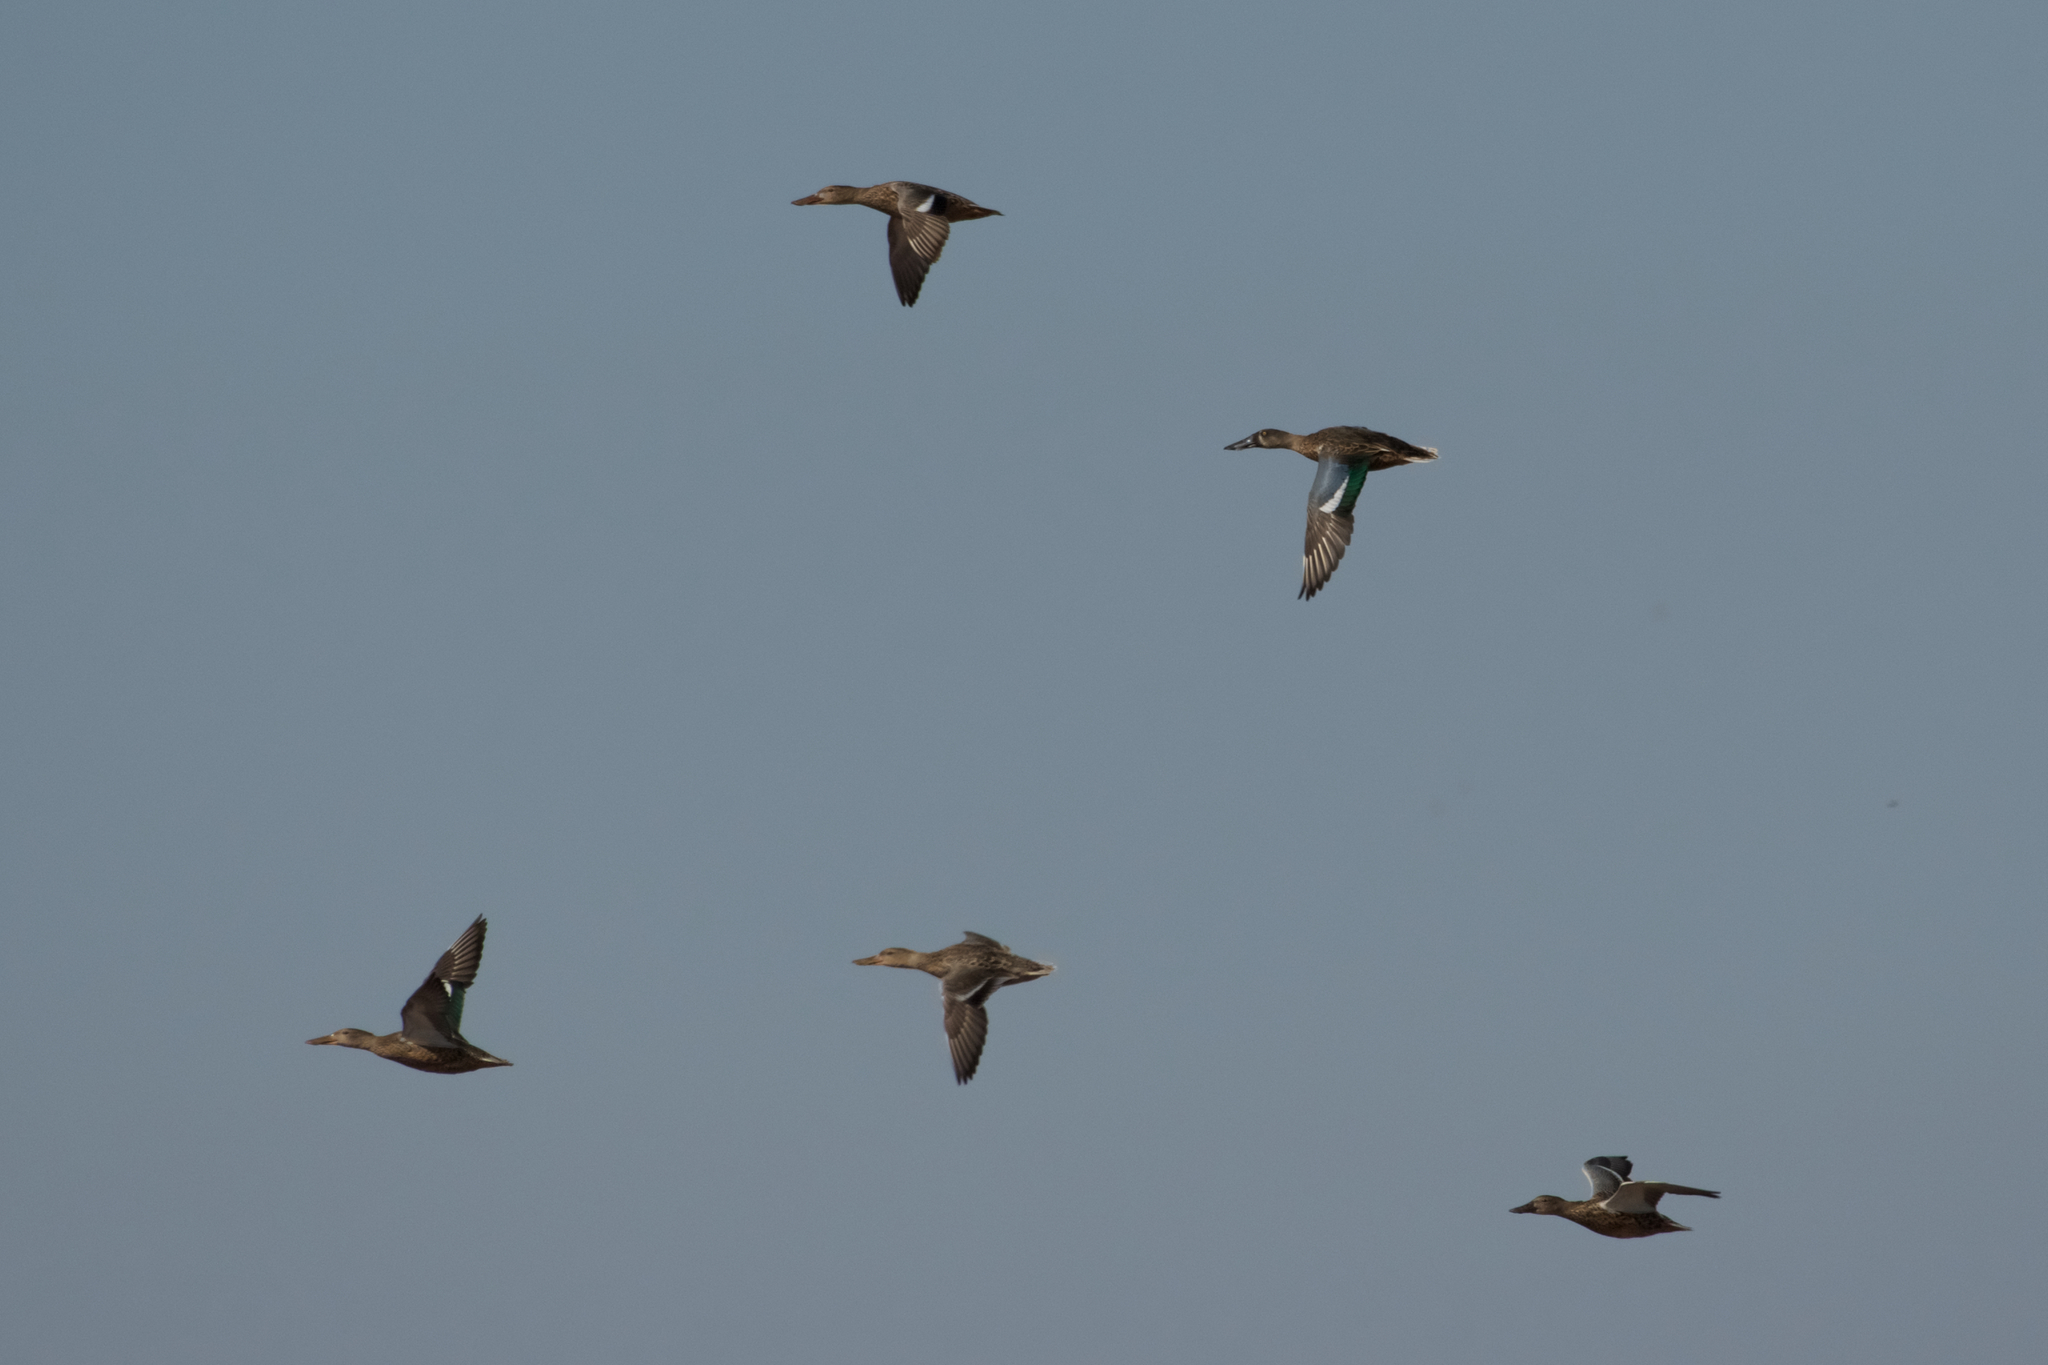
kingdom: Animalia
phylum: Chordata
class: Aves
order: Anseriformes
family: Anatidae
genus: Spatula
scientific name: Spatula clypeata
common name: Northern shoveler
